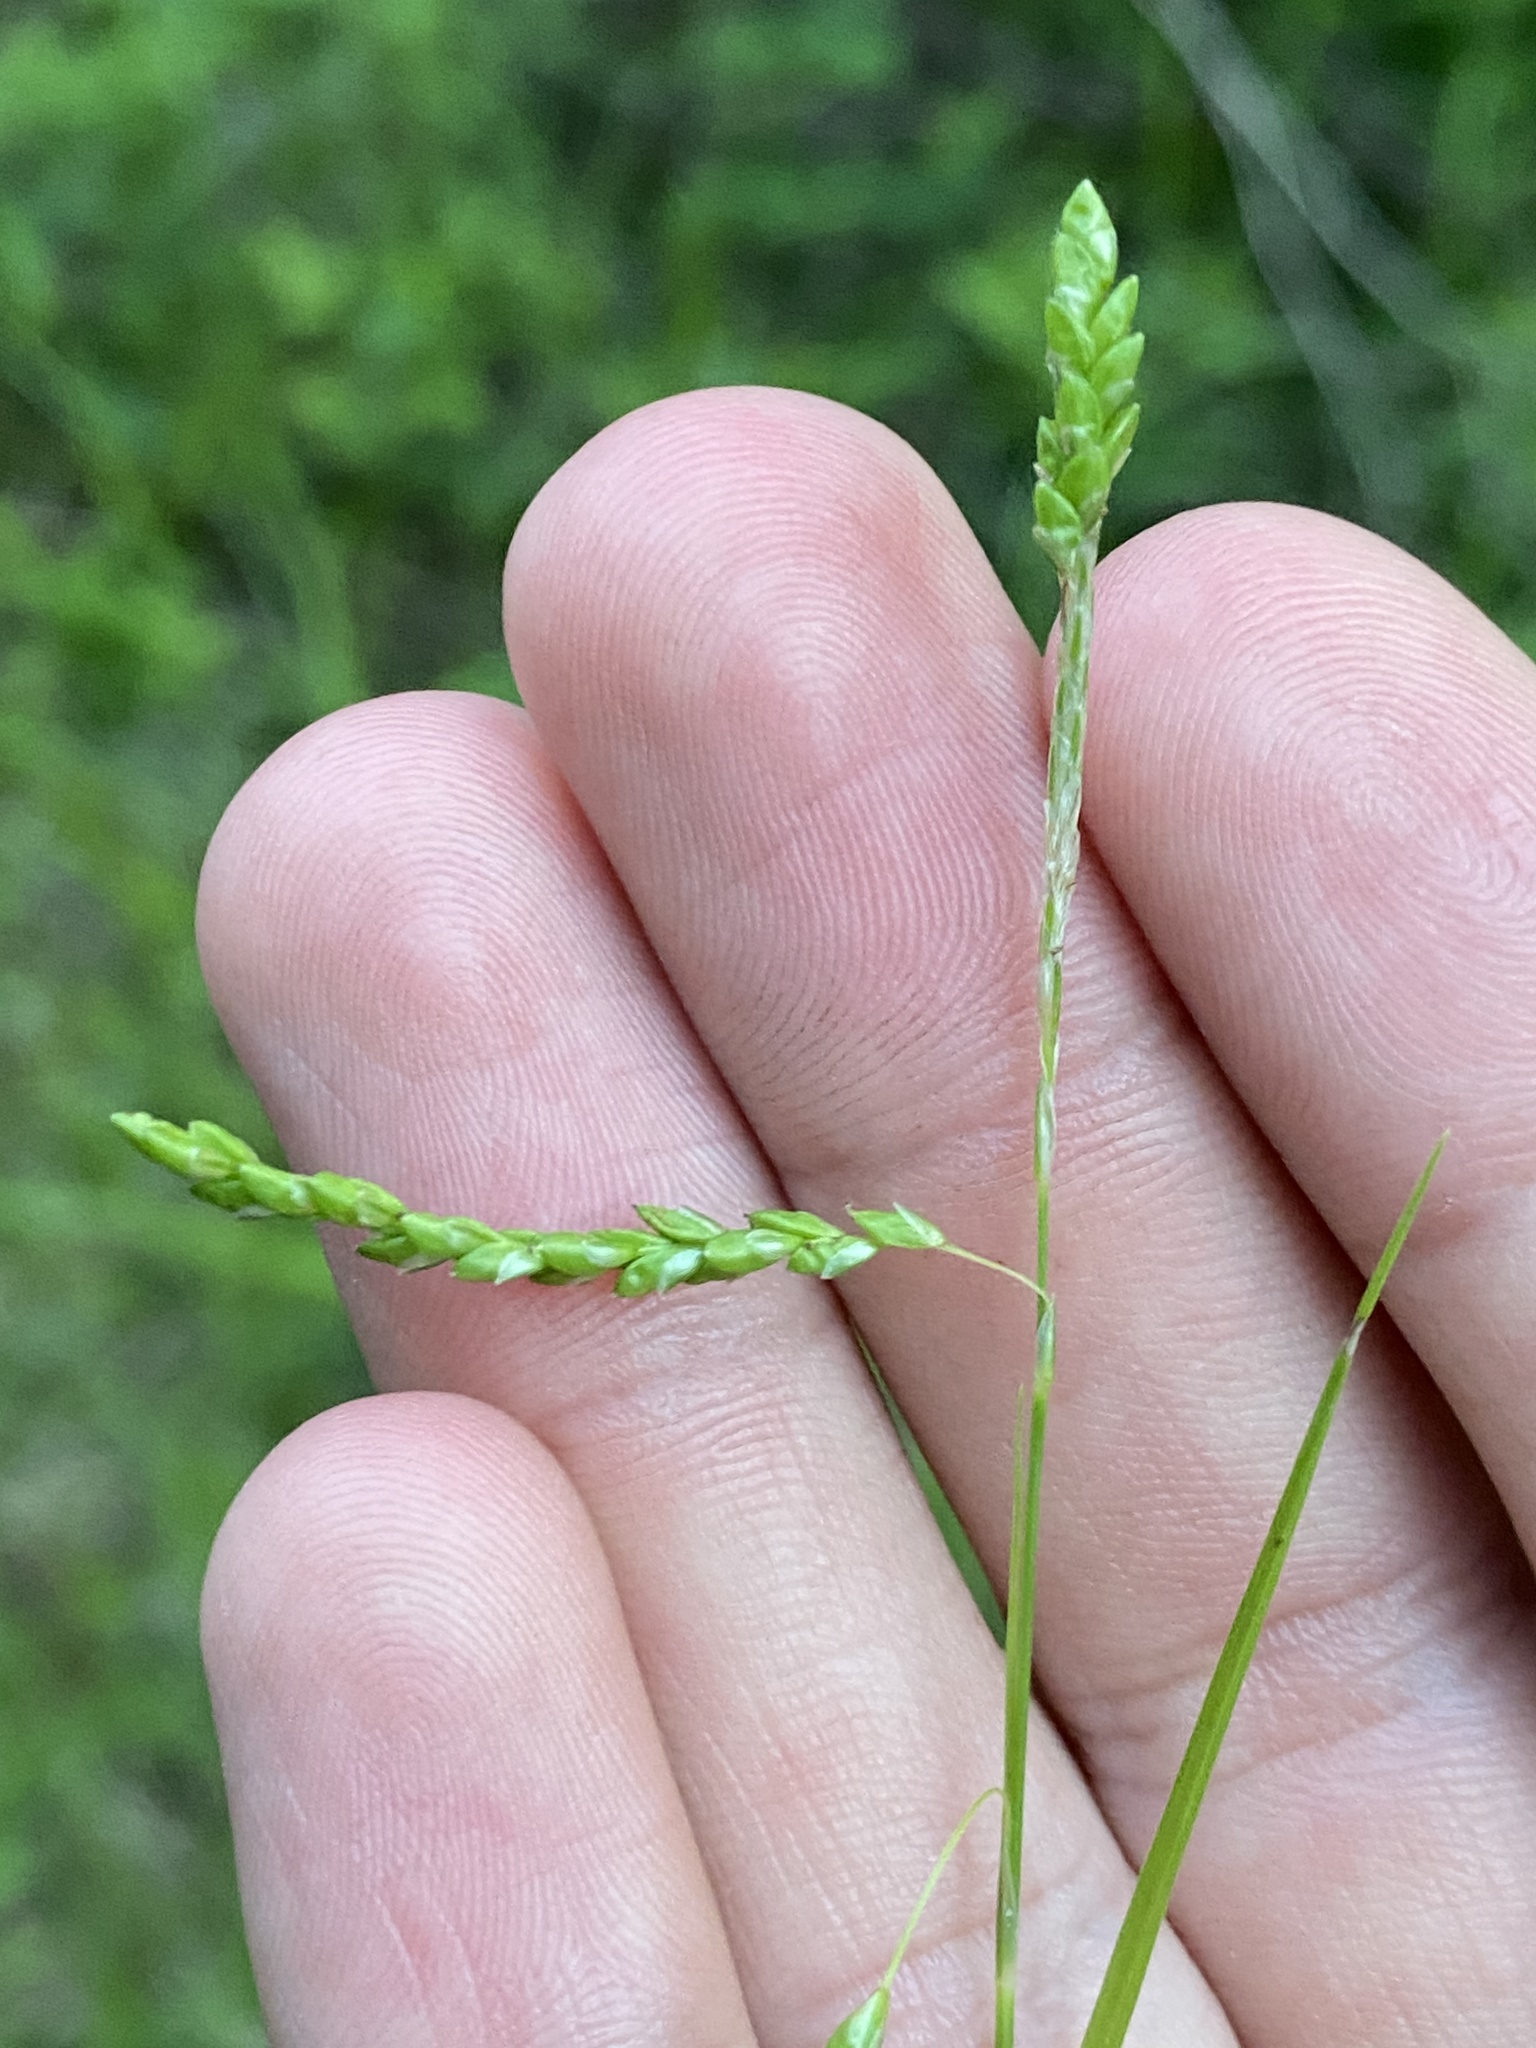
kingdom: Plantae
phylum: Tracheophyta
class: Liliopsida
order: Poales
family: Cyperaceae
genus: Carex
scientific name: Carex gracillima
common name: Graceful sedge
